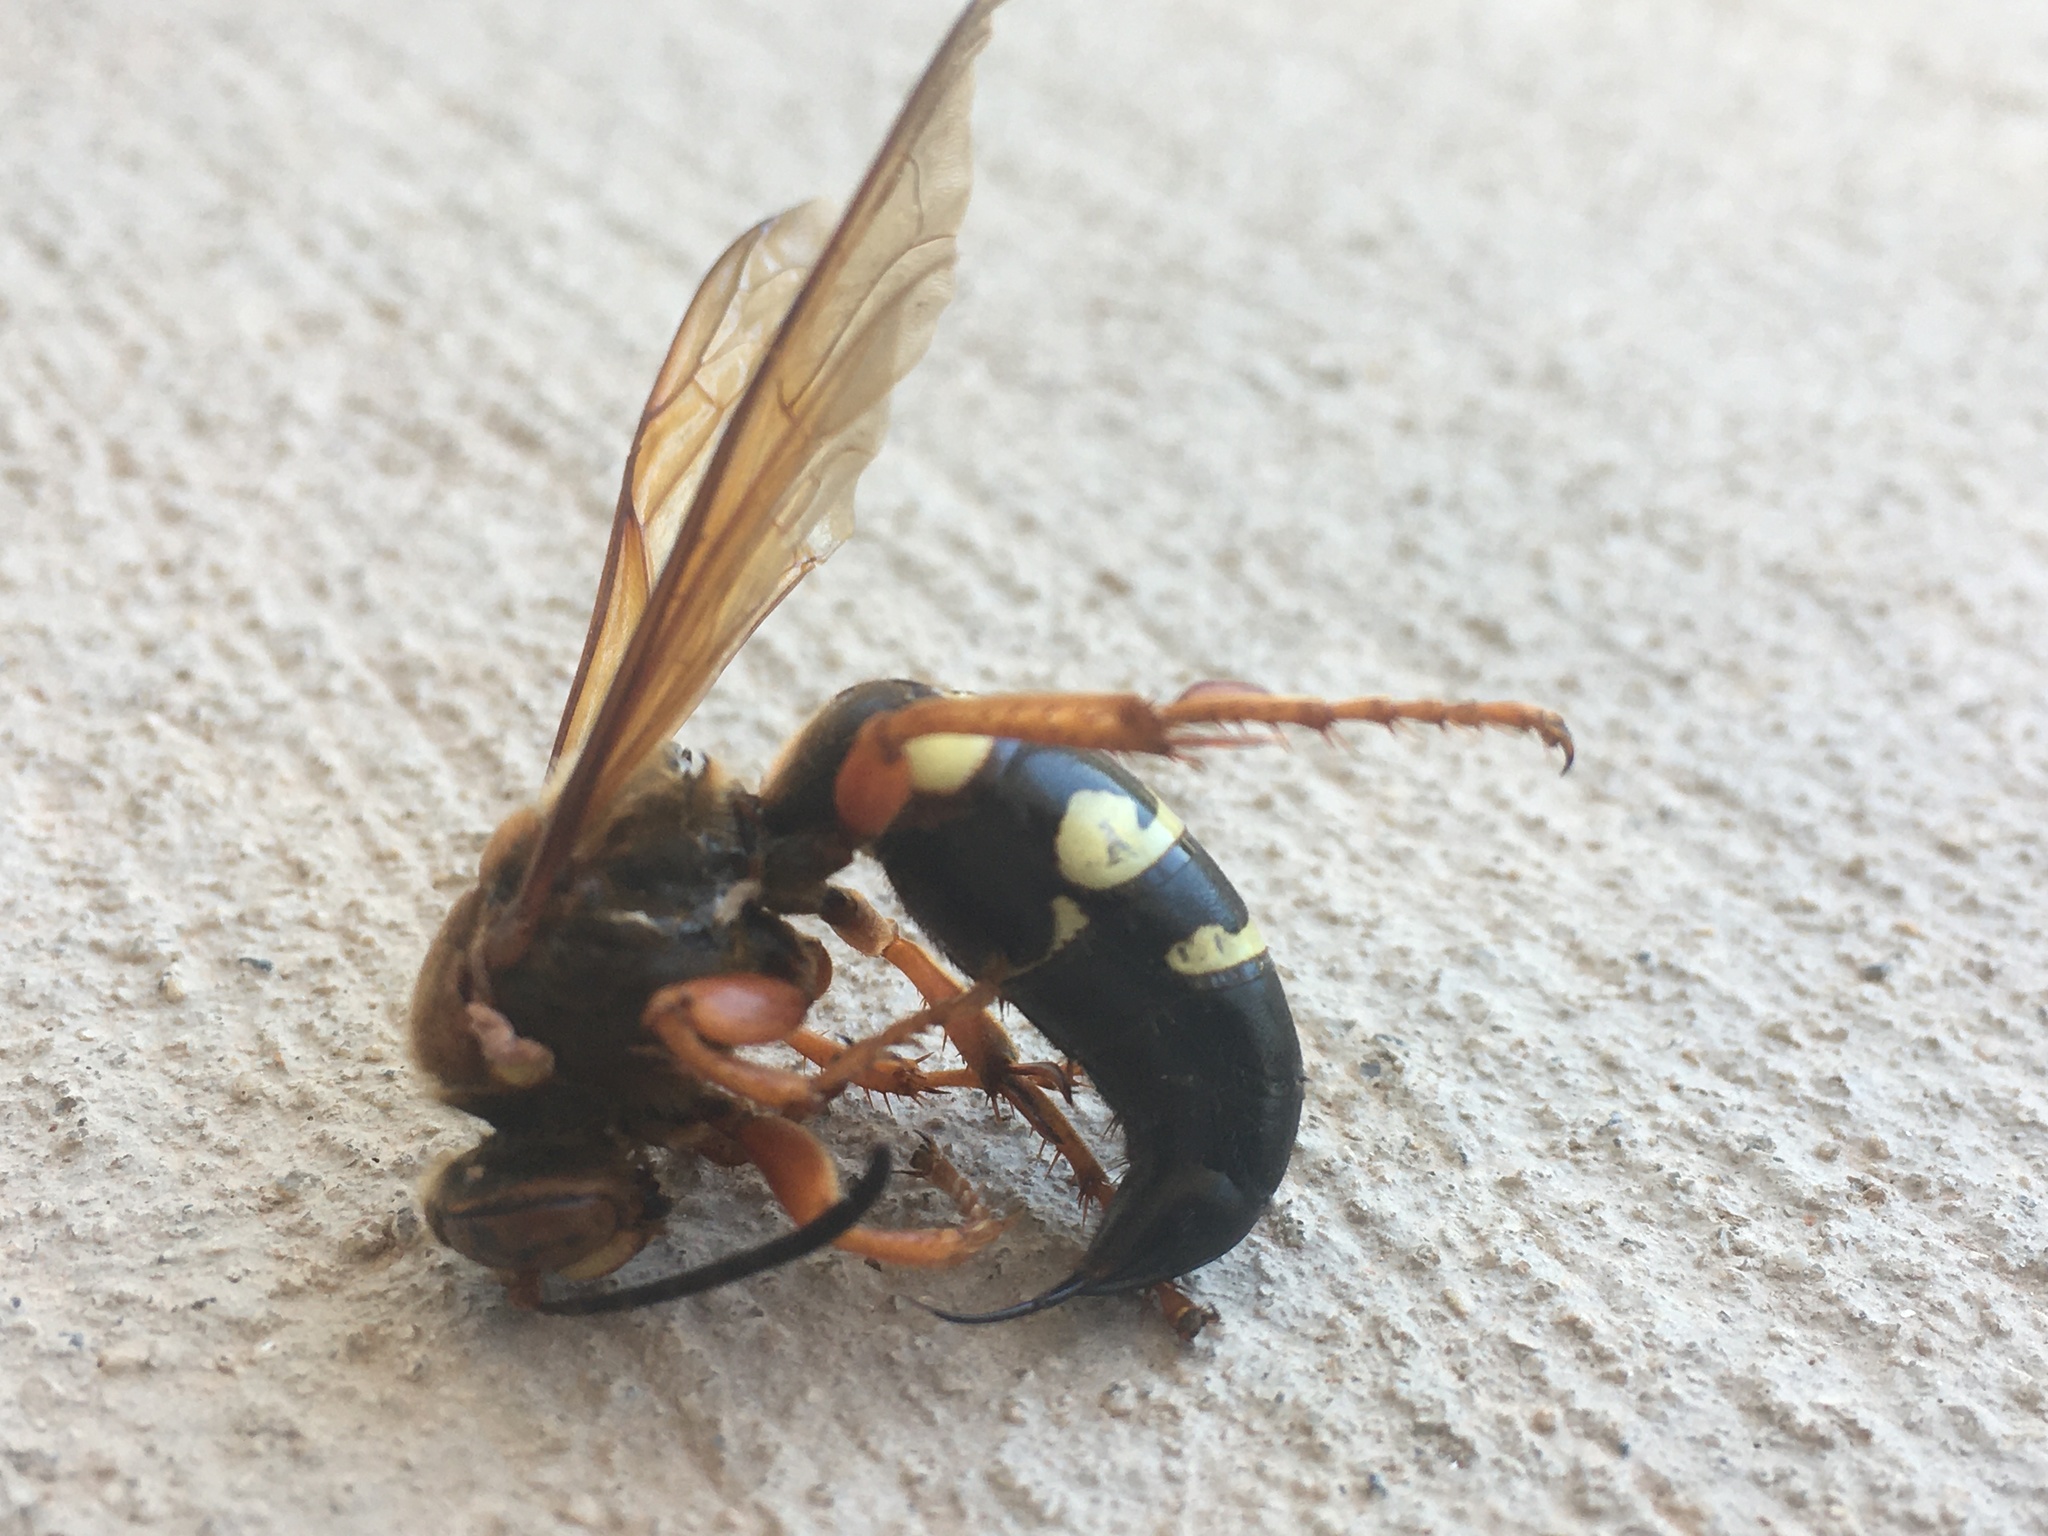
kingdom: Animalia
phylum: Arthropoda
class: Insecta
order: Hymenoptera
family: Crabronidae
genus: Sphecius
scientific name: Sphecius speciosus
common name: Cicada killer
